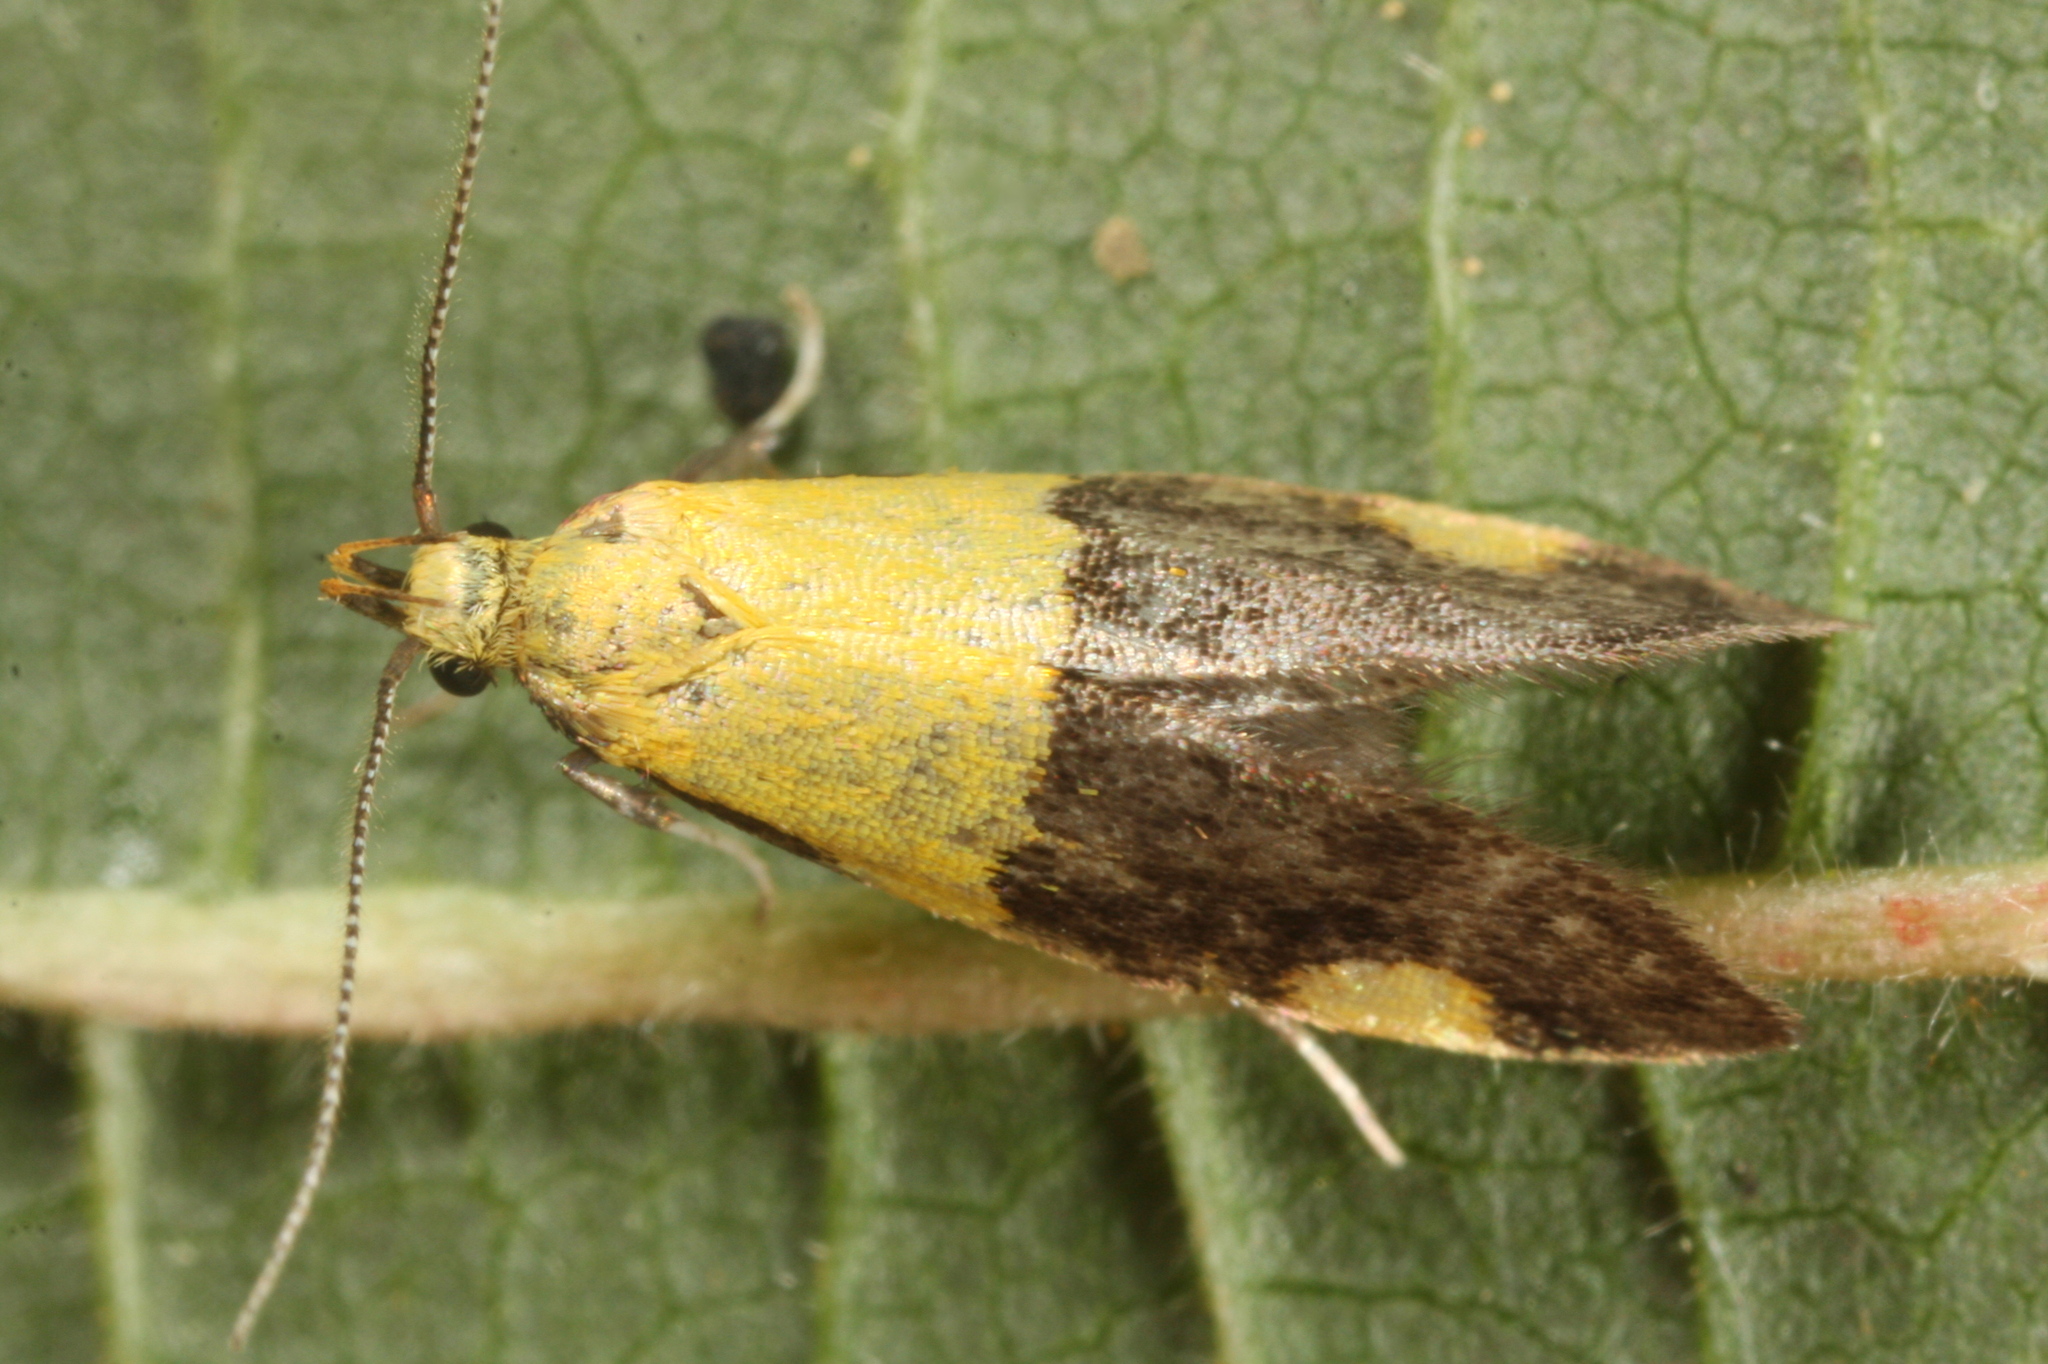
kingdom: Animalia
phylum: Arthropoda
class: Insecta
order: Lepidoptera
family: Oecophoridae
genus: Oecophora
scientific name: Oecophora bractella
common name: Gold-base tubic
